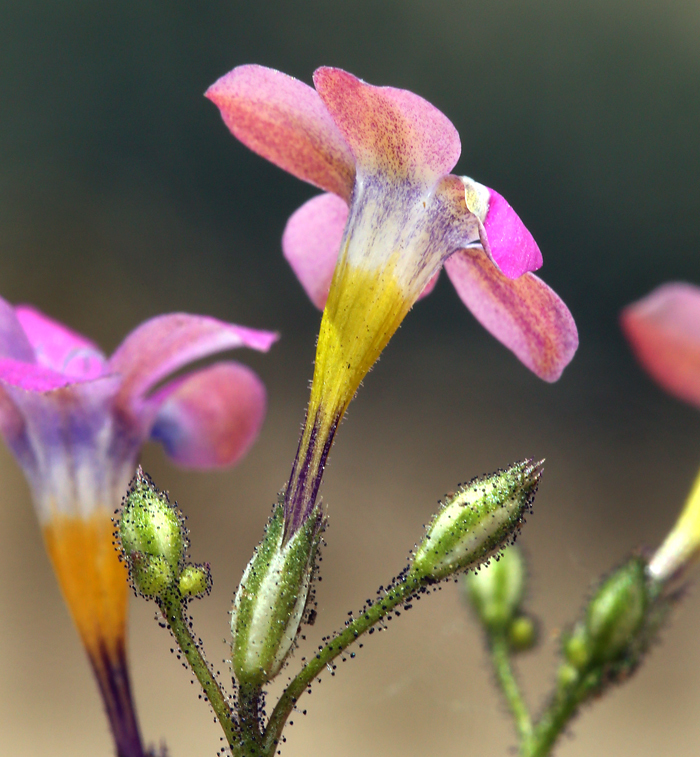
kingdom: Plantae
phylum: Tracheophyta
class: Magnoliopsida
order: Ericales
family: Polemoniaceae
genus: Gilia
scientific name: Gilia cana
